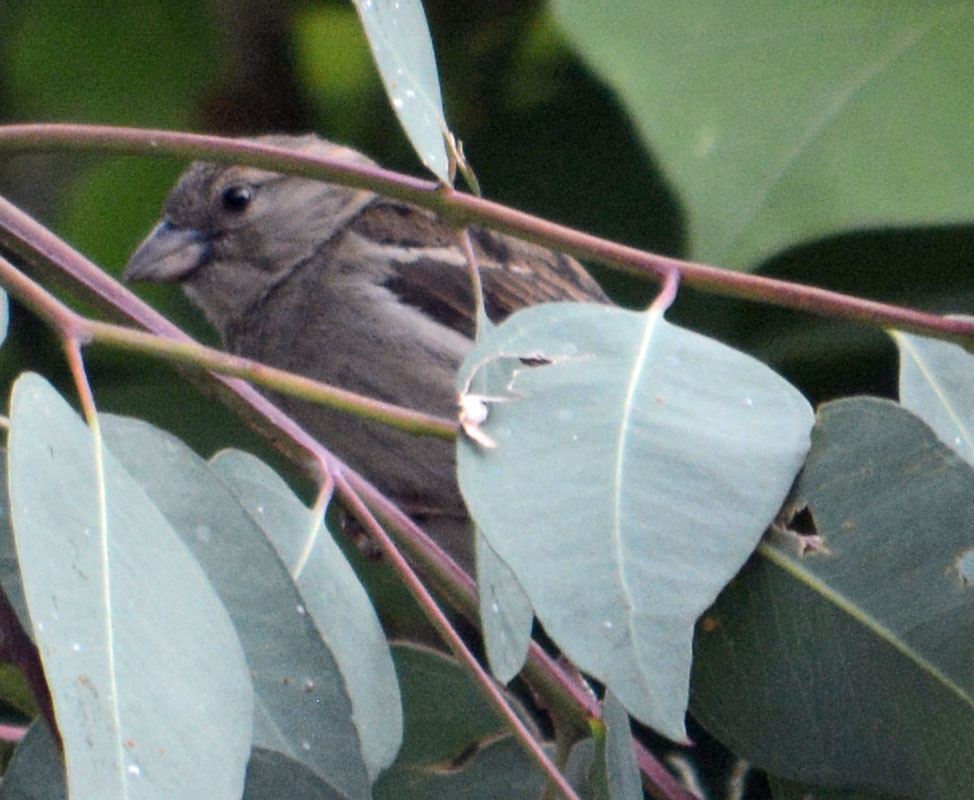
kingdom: Animalia
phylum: Chordata
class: Aves
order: Passeriformes
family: Passeridae
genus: Passer
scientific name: Passer domesticus
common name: House sparrow
